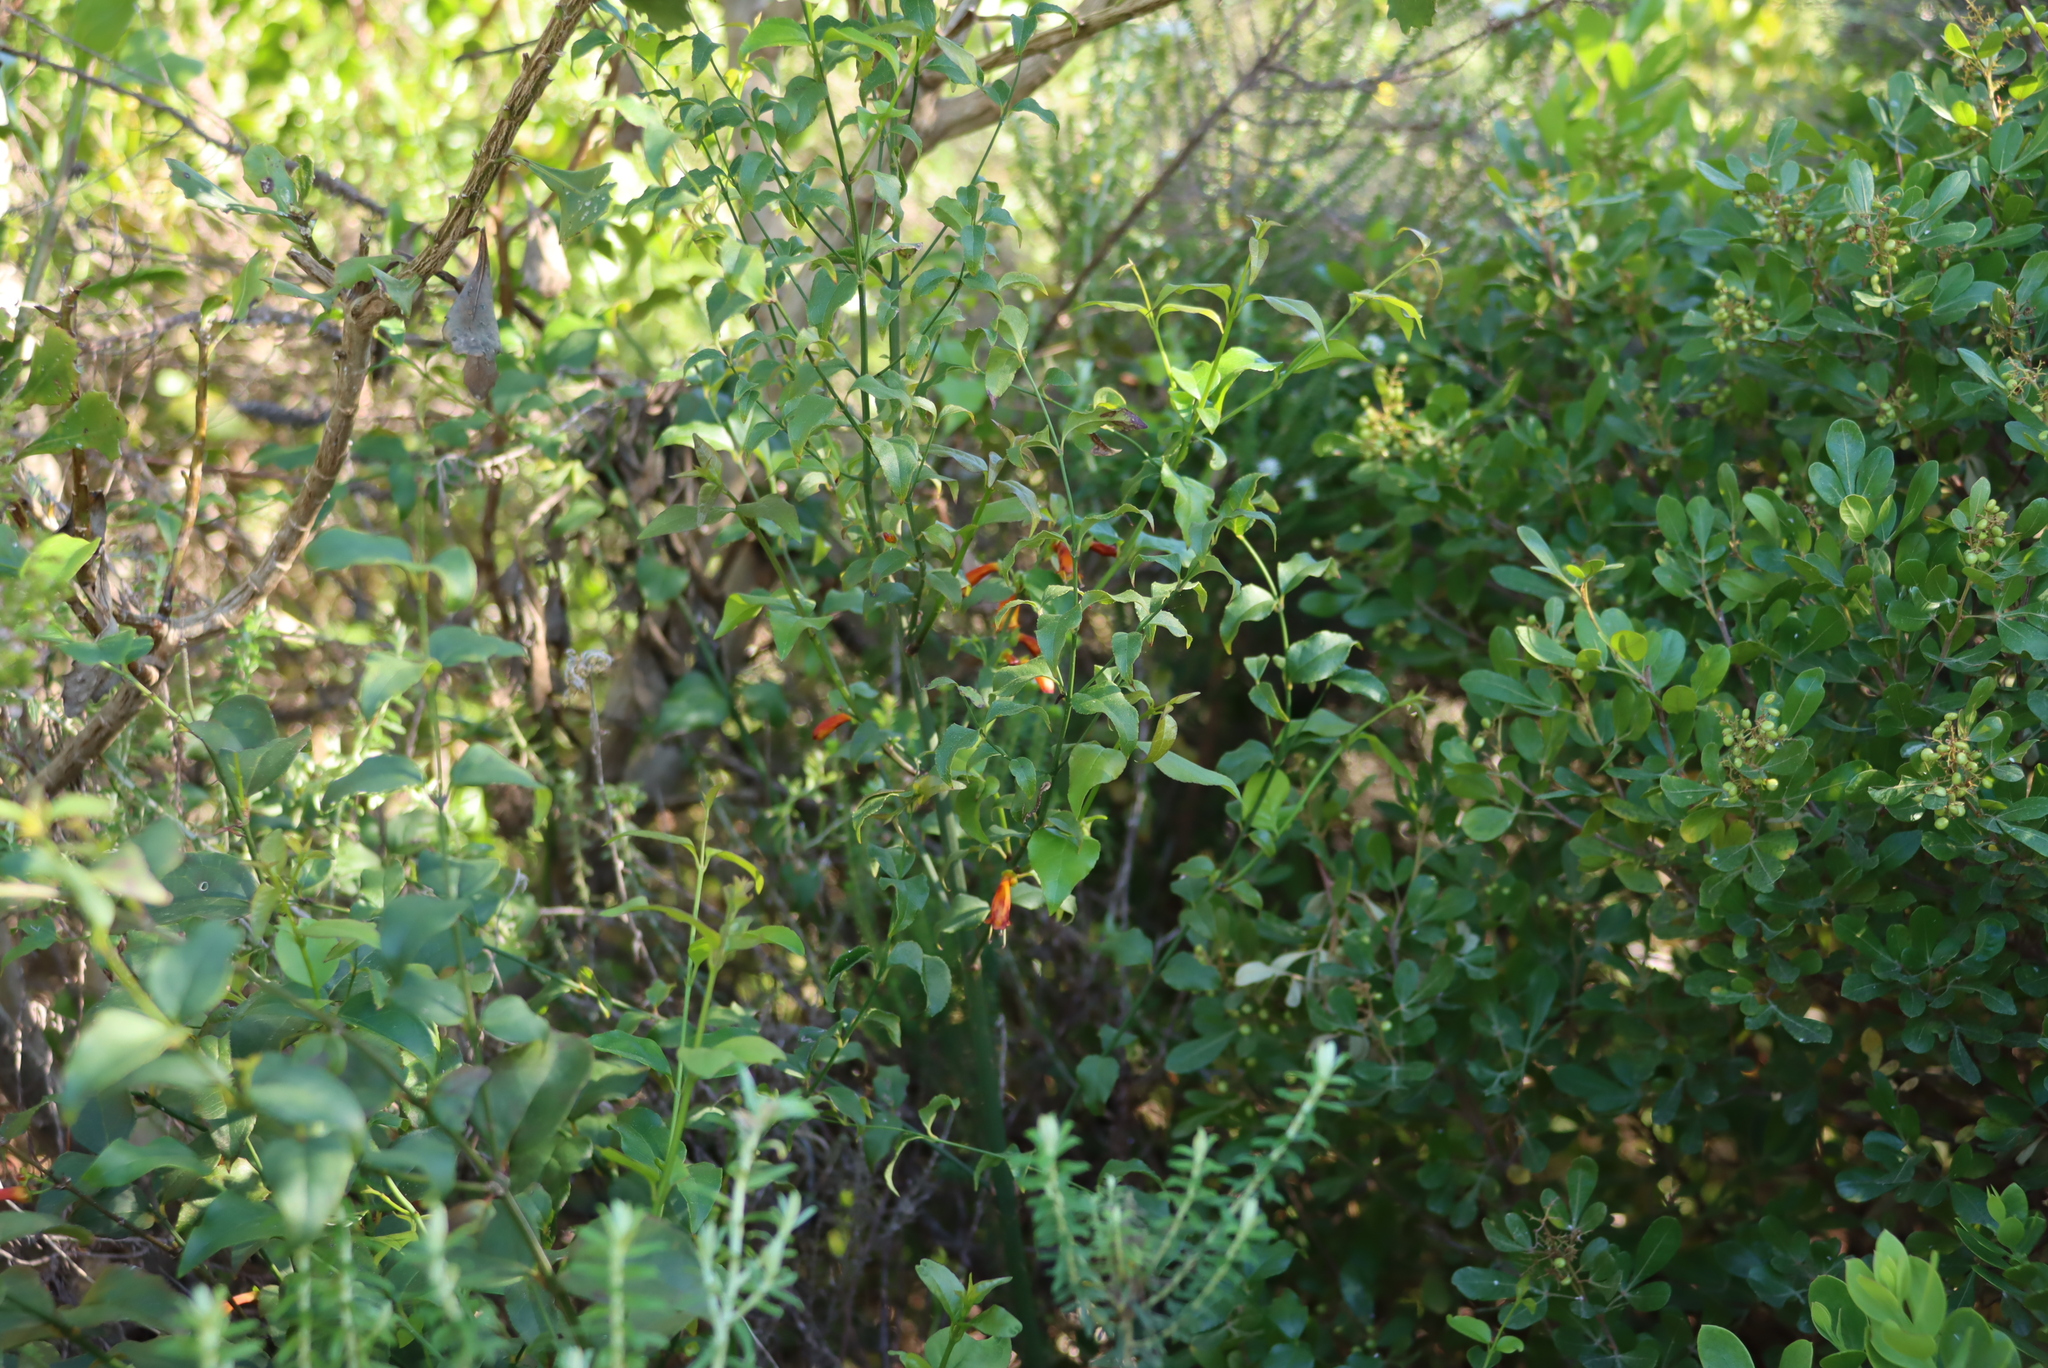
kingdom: Plantae
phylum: Tracheophyta
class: Magnoliopsida
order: Lamiales
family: Stilbaceae
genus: Halleria
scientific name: Halleria lucida
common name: Tree fuschia
